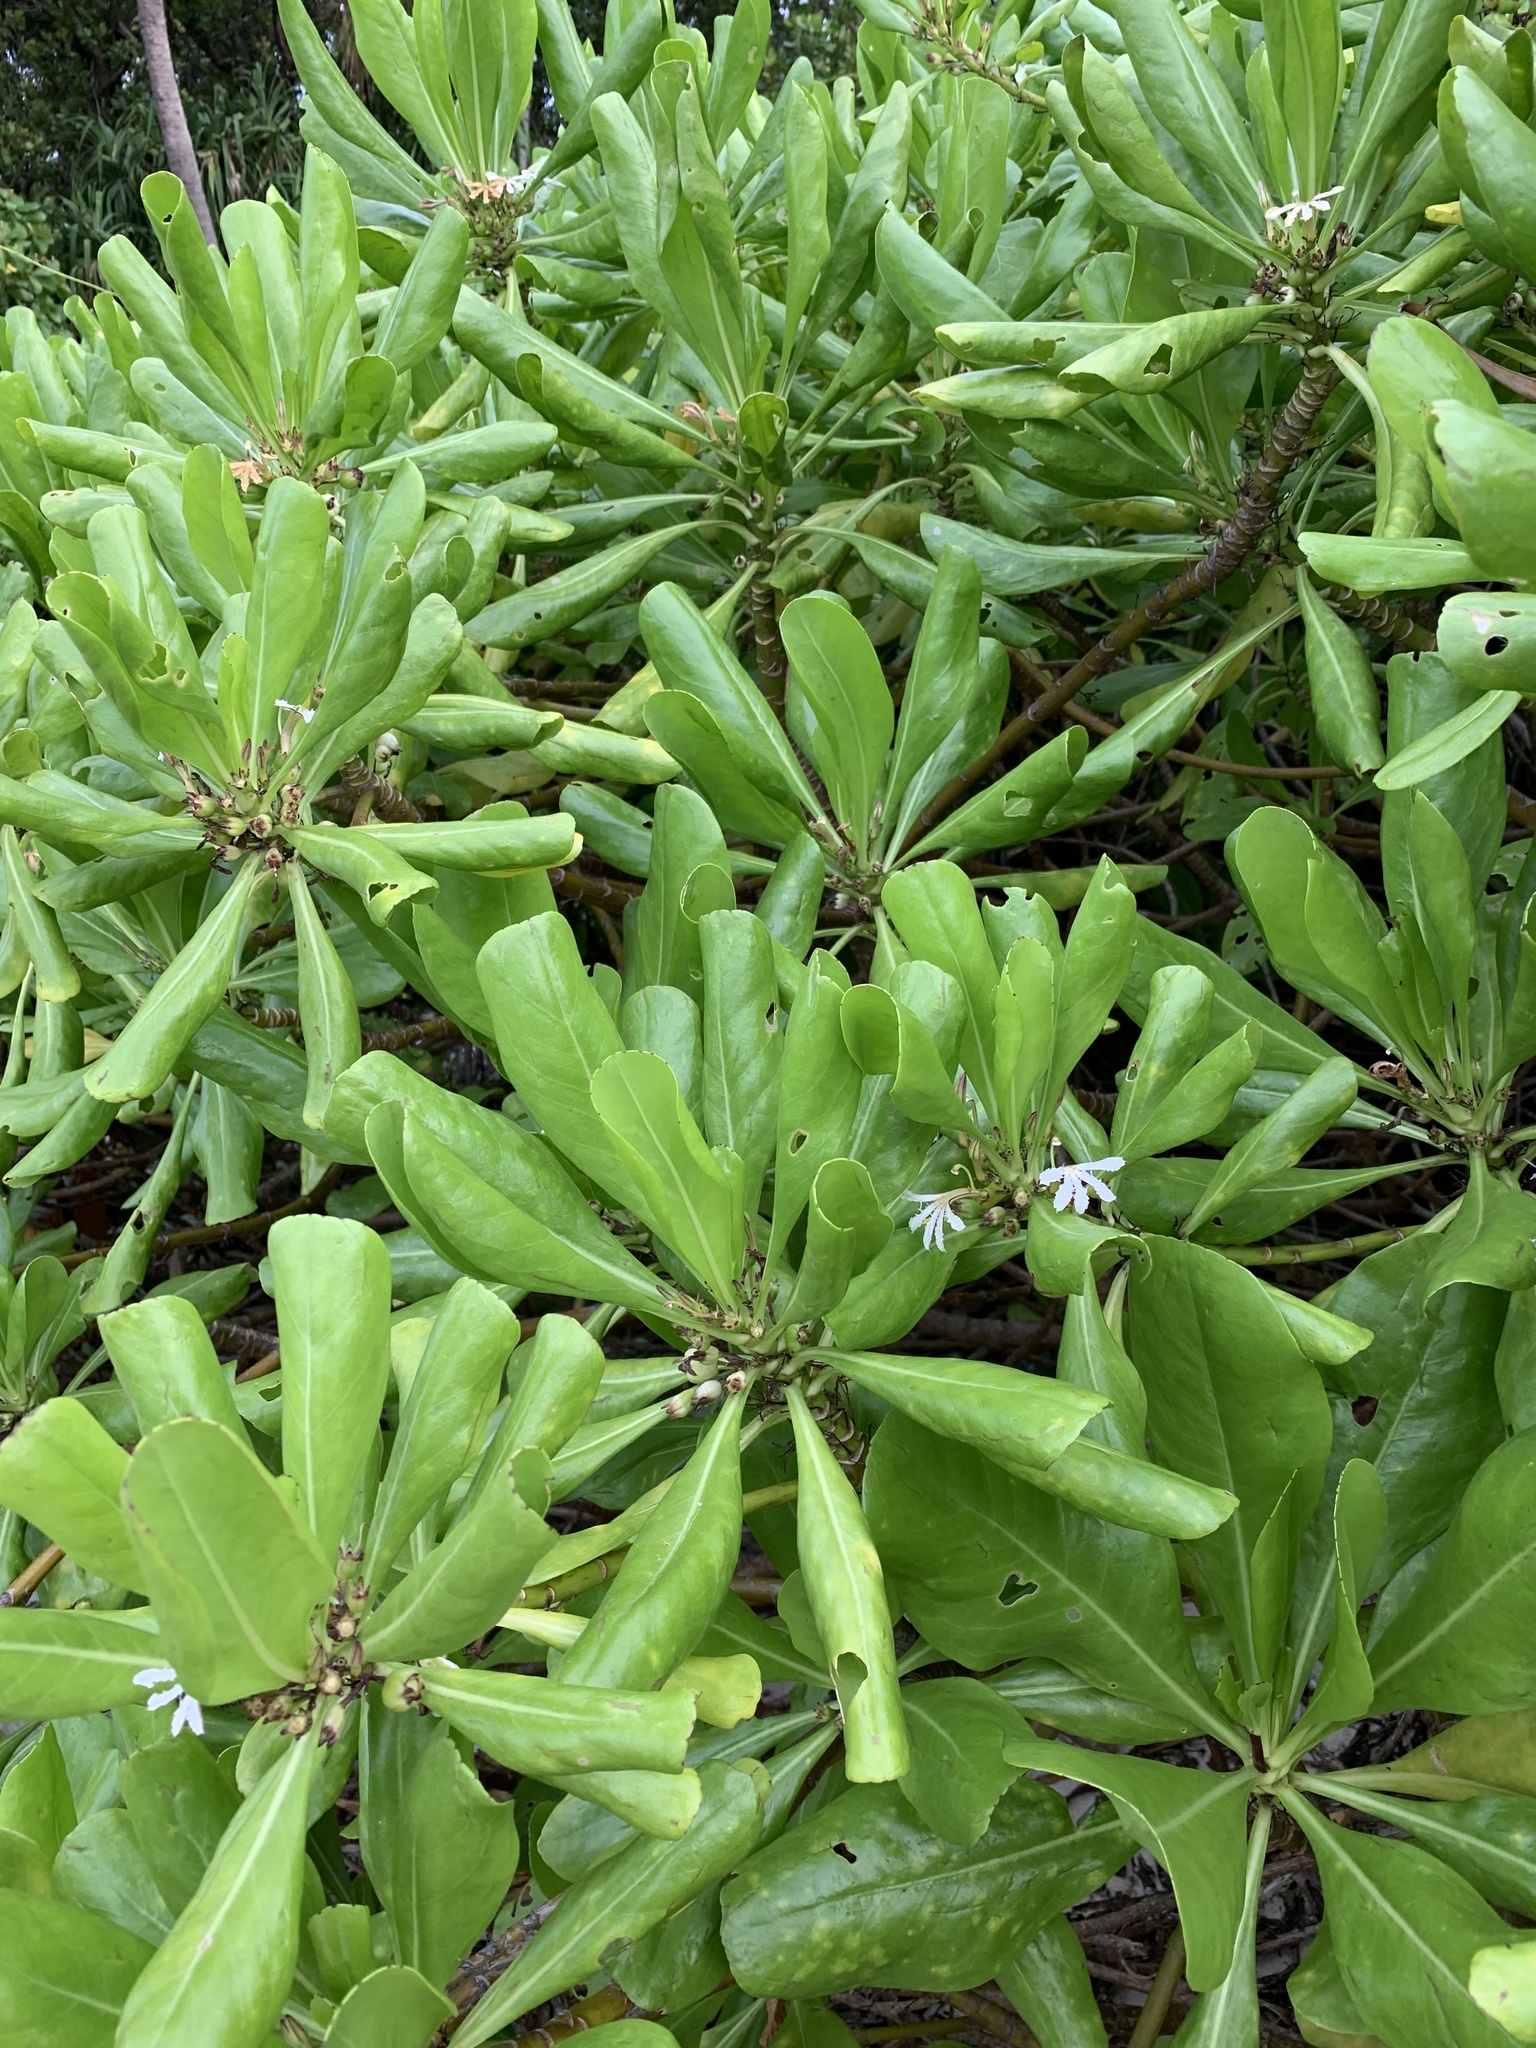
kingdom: Plantae
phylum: Tracheophyta
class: Magnoliopsida
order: Asterales
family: Goodeniaceae
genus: Scaevola
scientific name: Scaevola taccada
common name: Sea lettucetree
